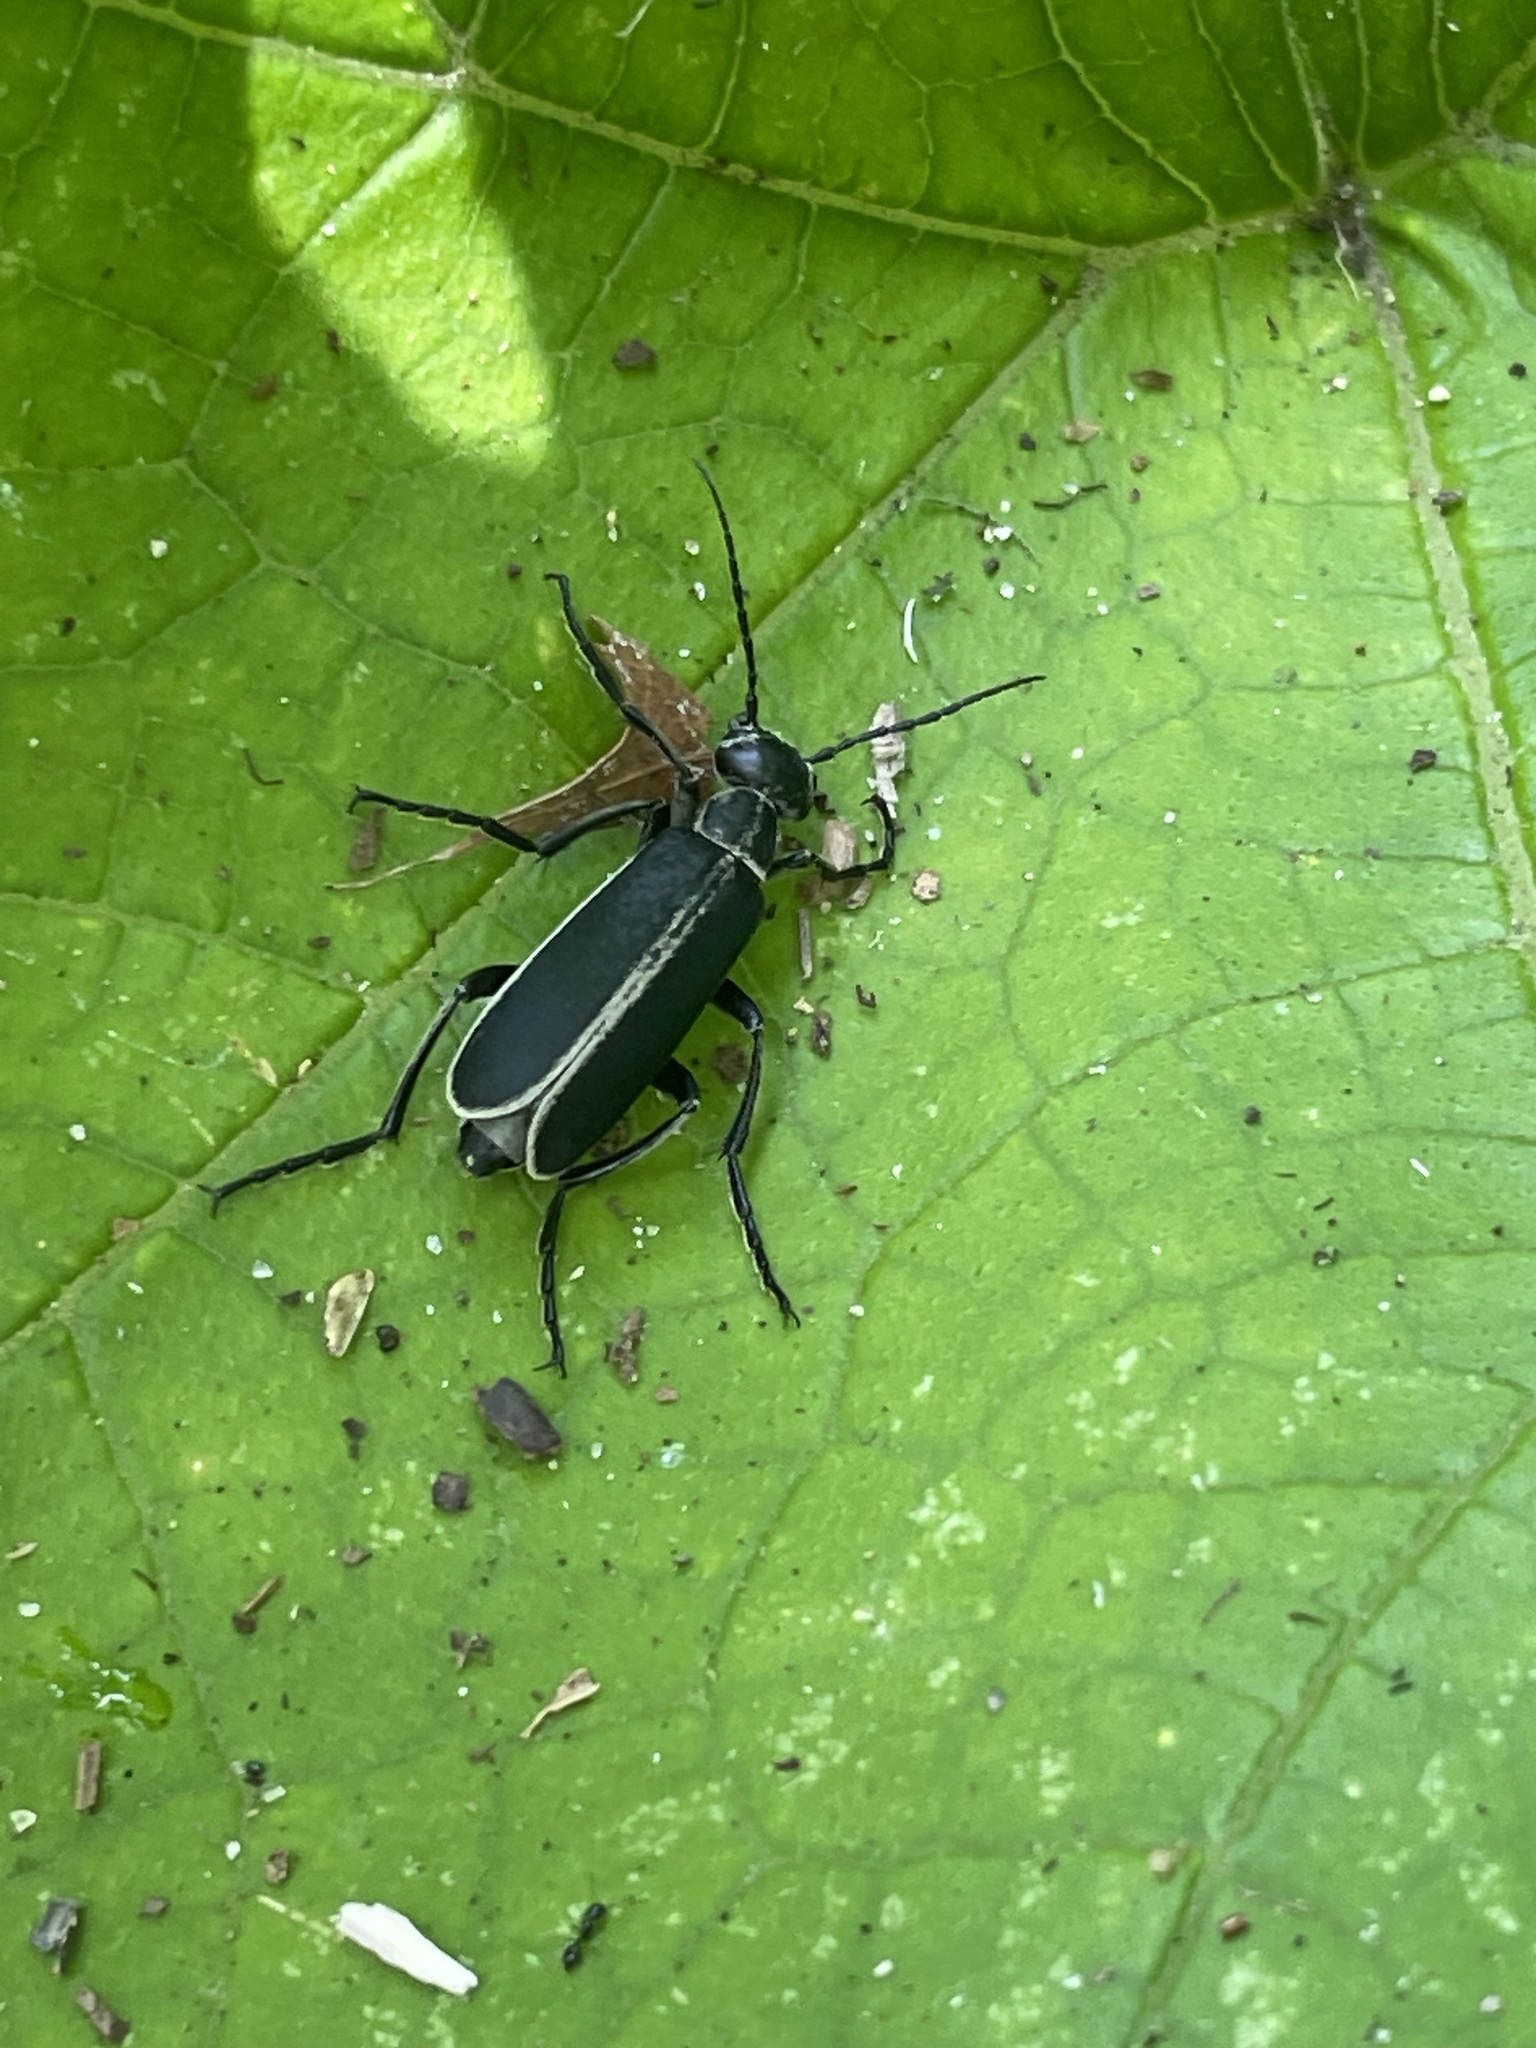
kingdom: Animalia
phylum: Arthropoda
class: Insecta
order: Coleoptera
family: Meloidae
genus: Epicauta
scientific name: Epicauta funebris
